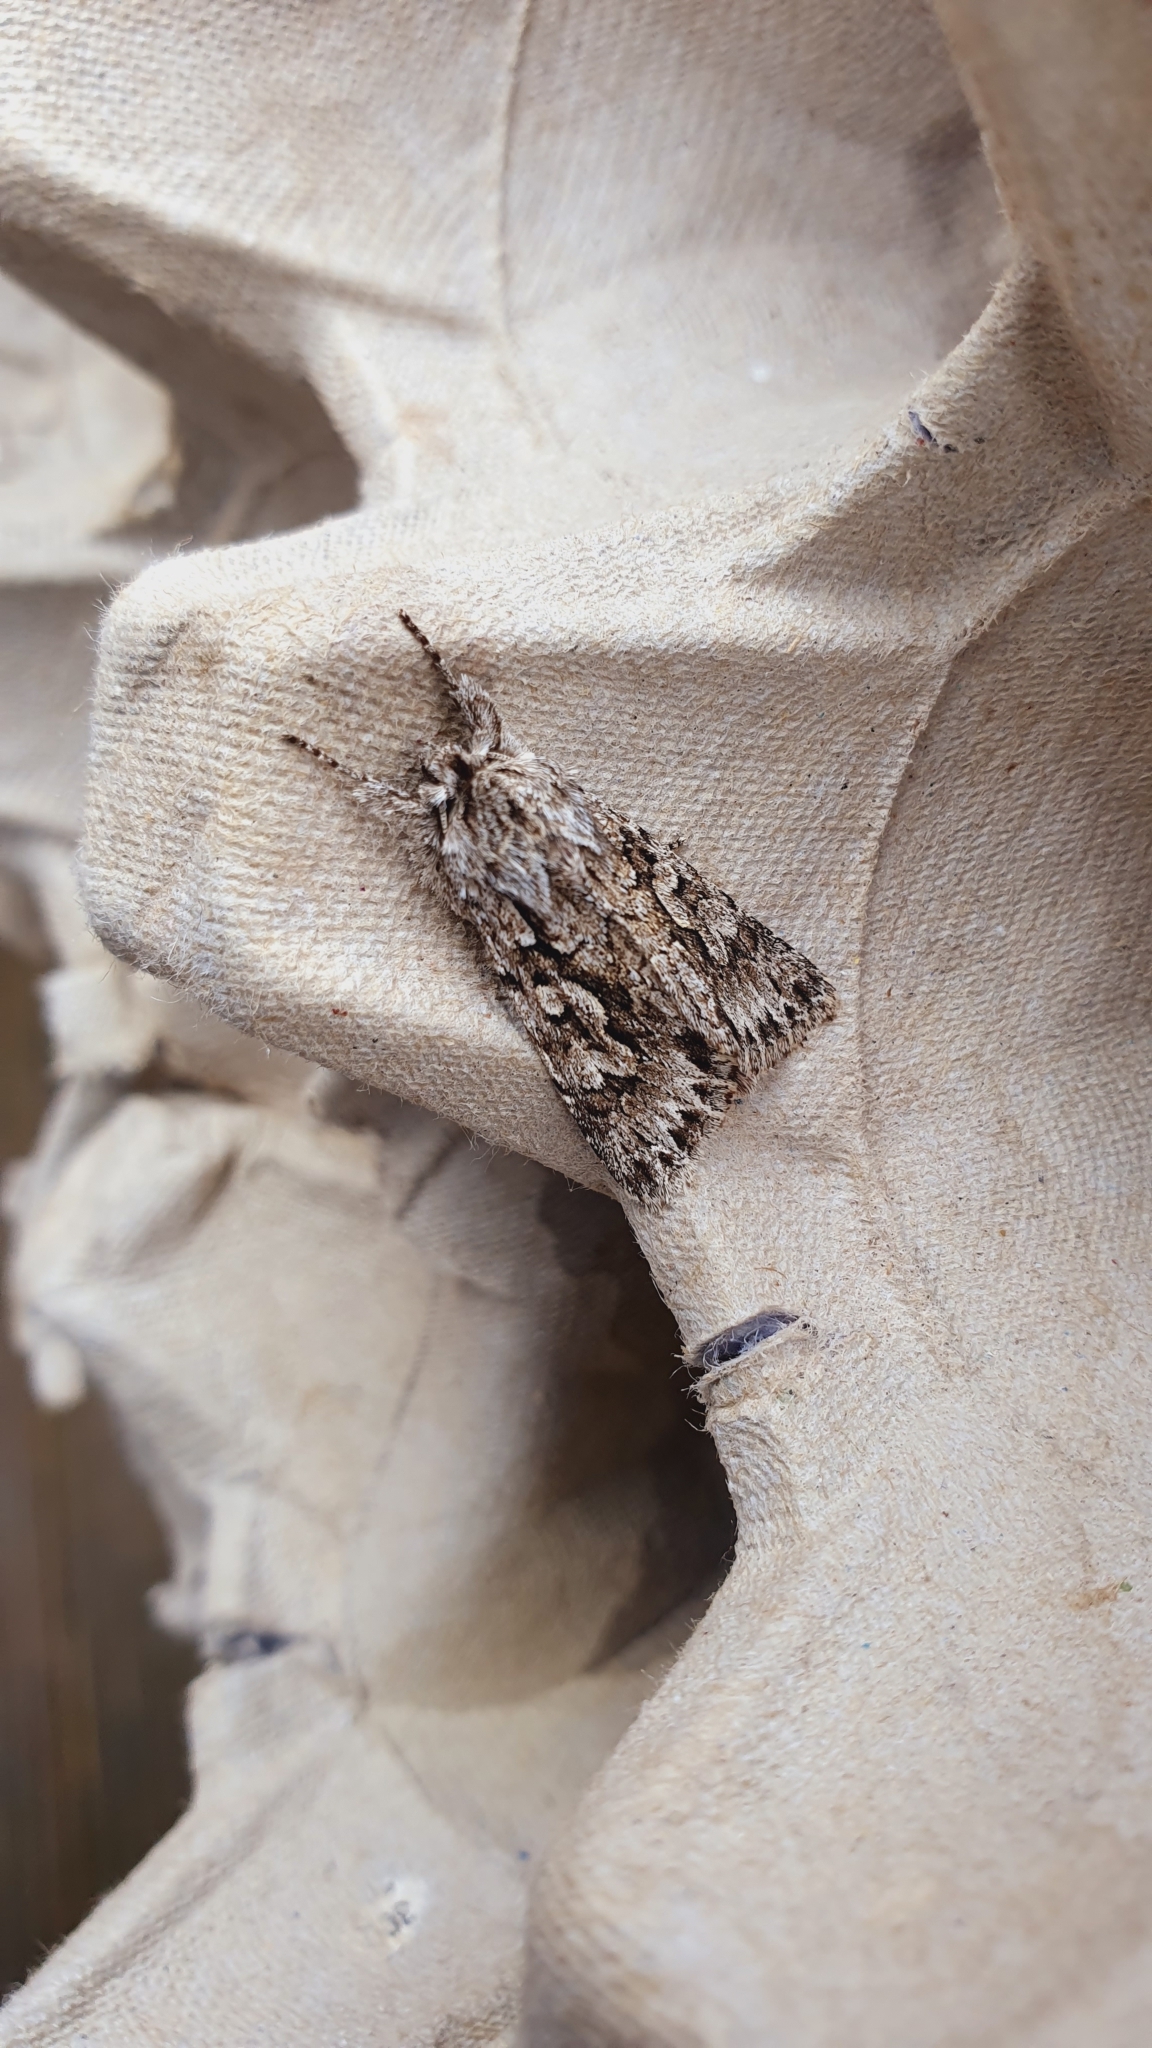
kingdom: Animalia
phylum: Arthropoda
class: Insecta
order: Lepidoptera
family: Noctuidae
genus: Xylocampa
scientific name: Xylocampa areola
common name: Early grey
